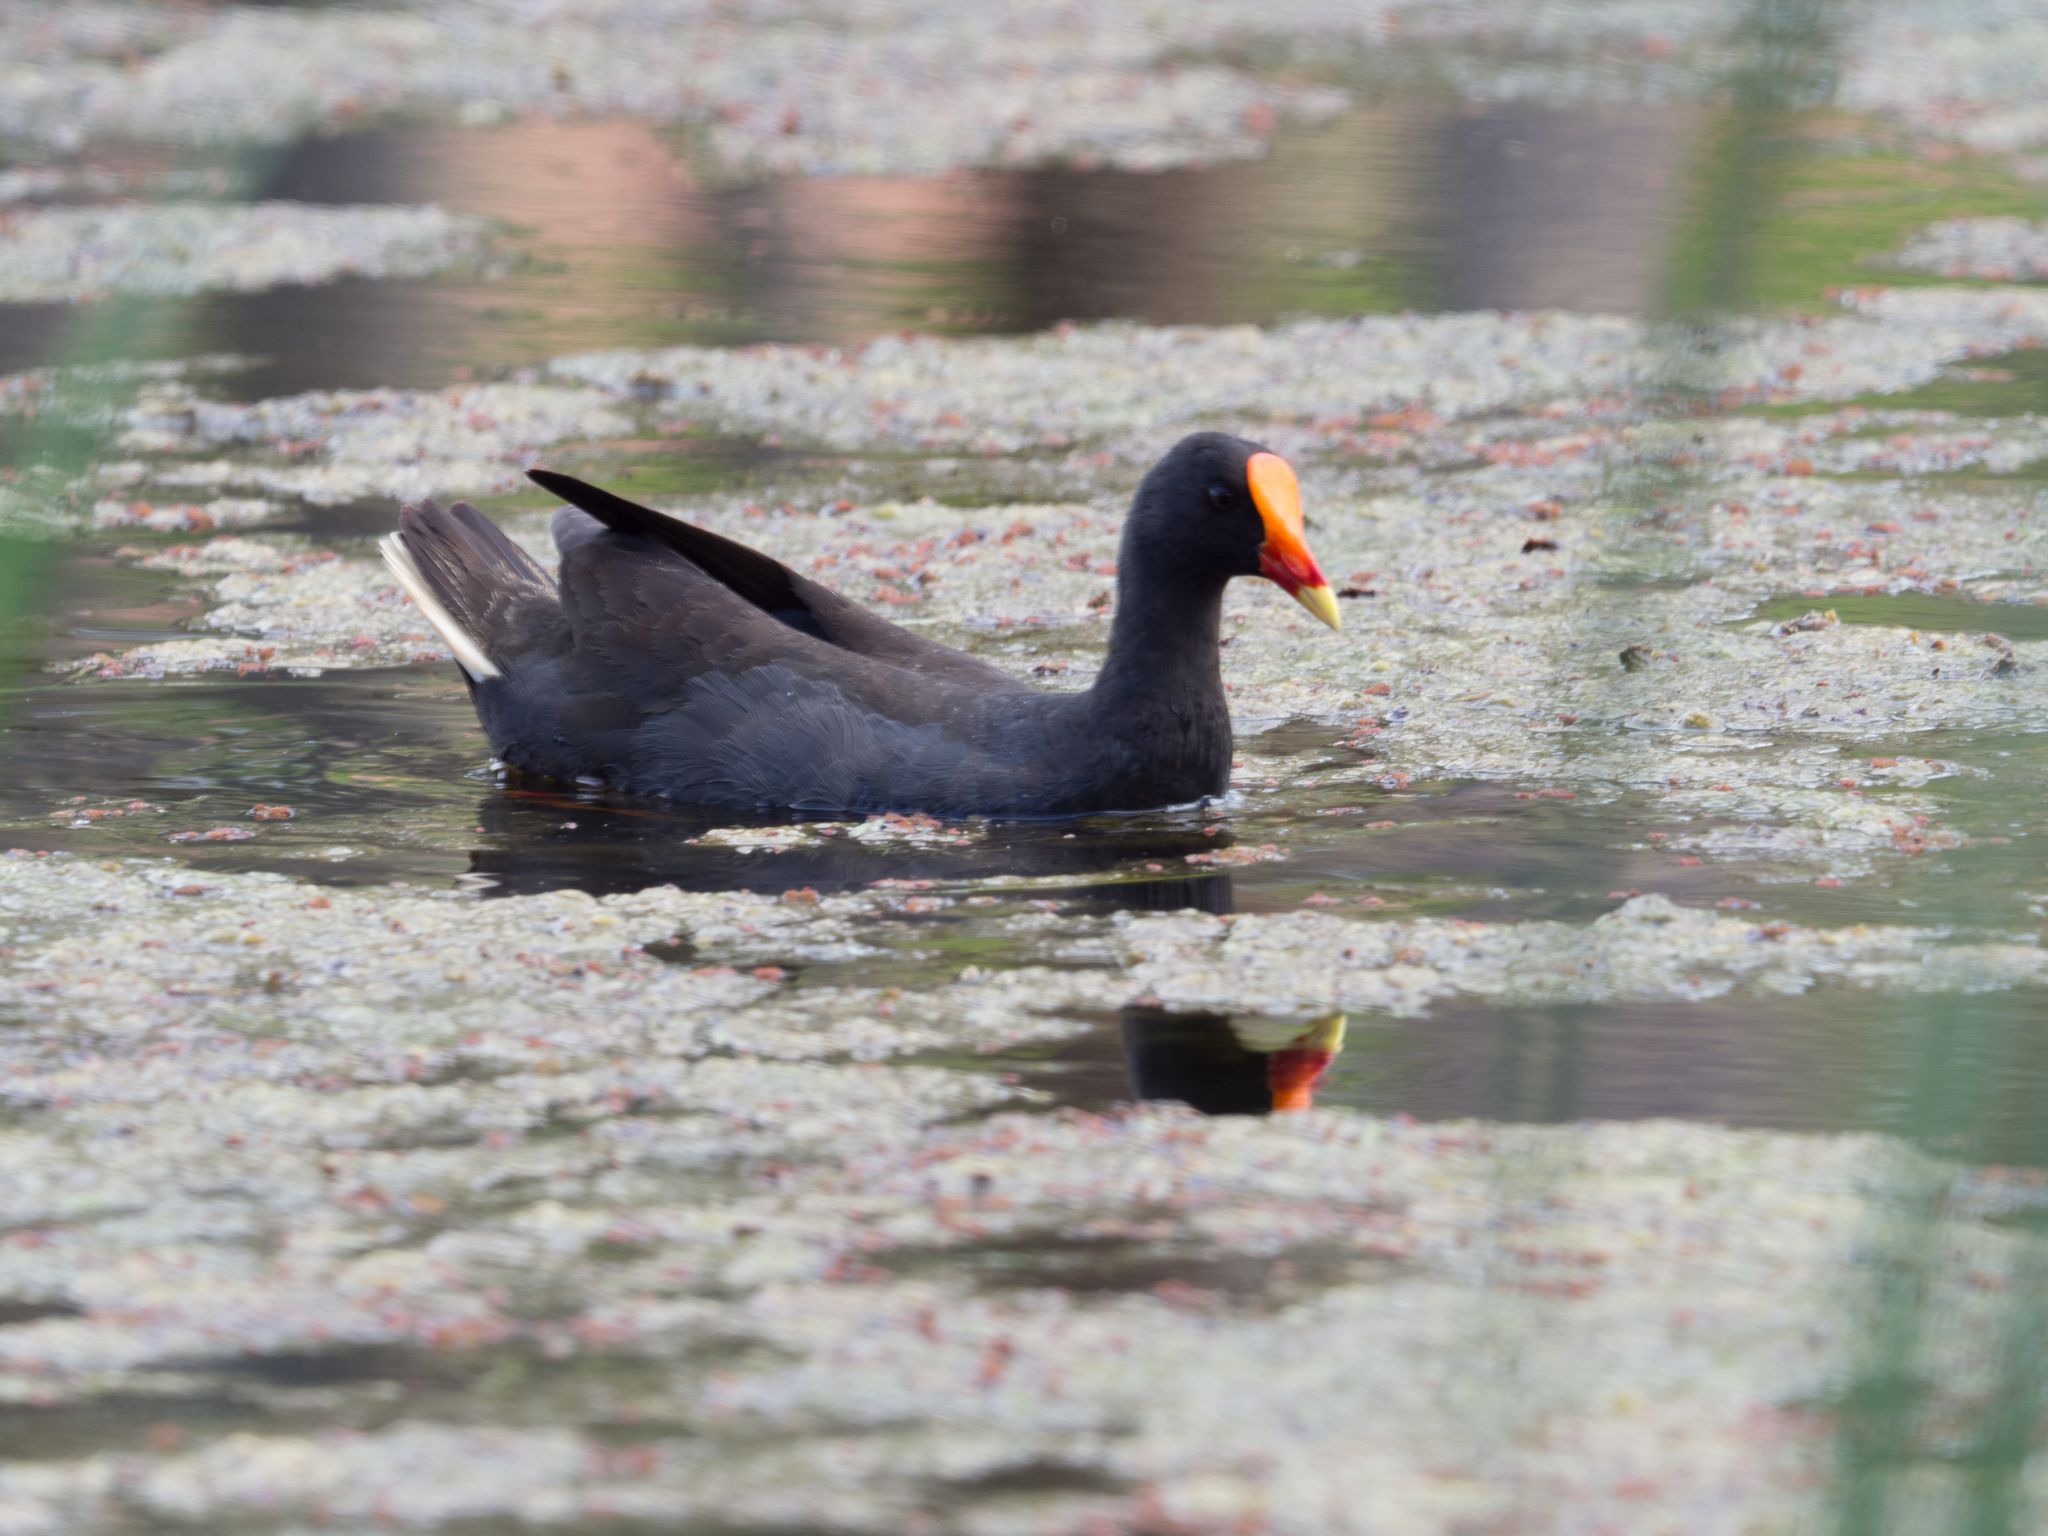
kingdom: Animalia
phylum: Chordata
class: Aves
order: Gruiformes
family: Rallidae
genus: Gallinula
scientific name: Gallinula tenebrosa
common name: Dusky moorhen
